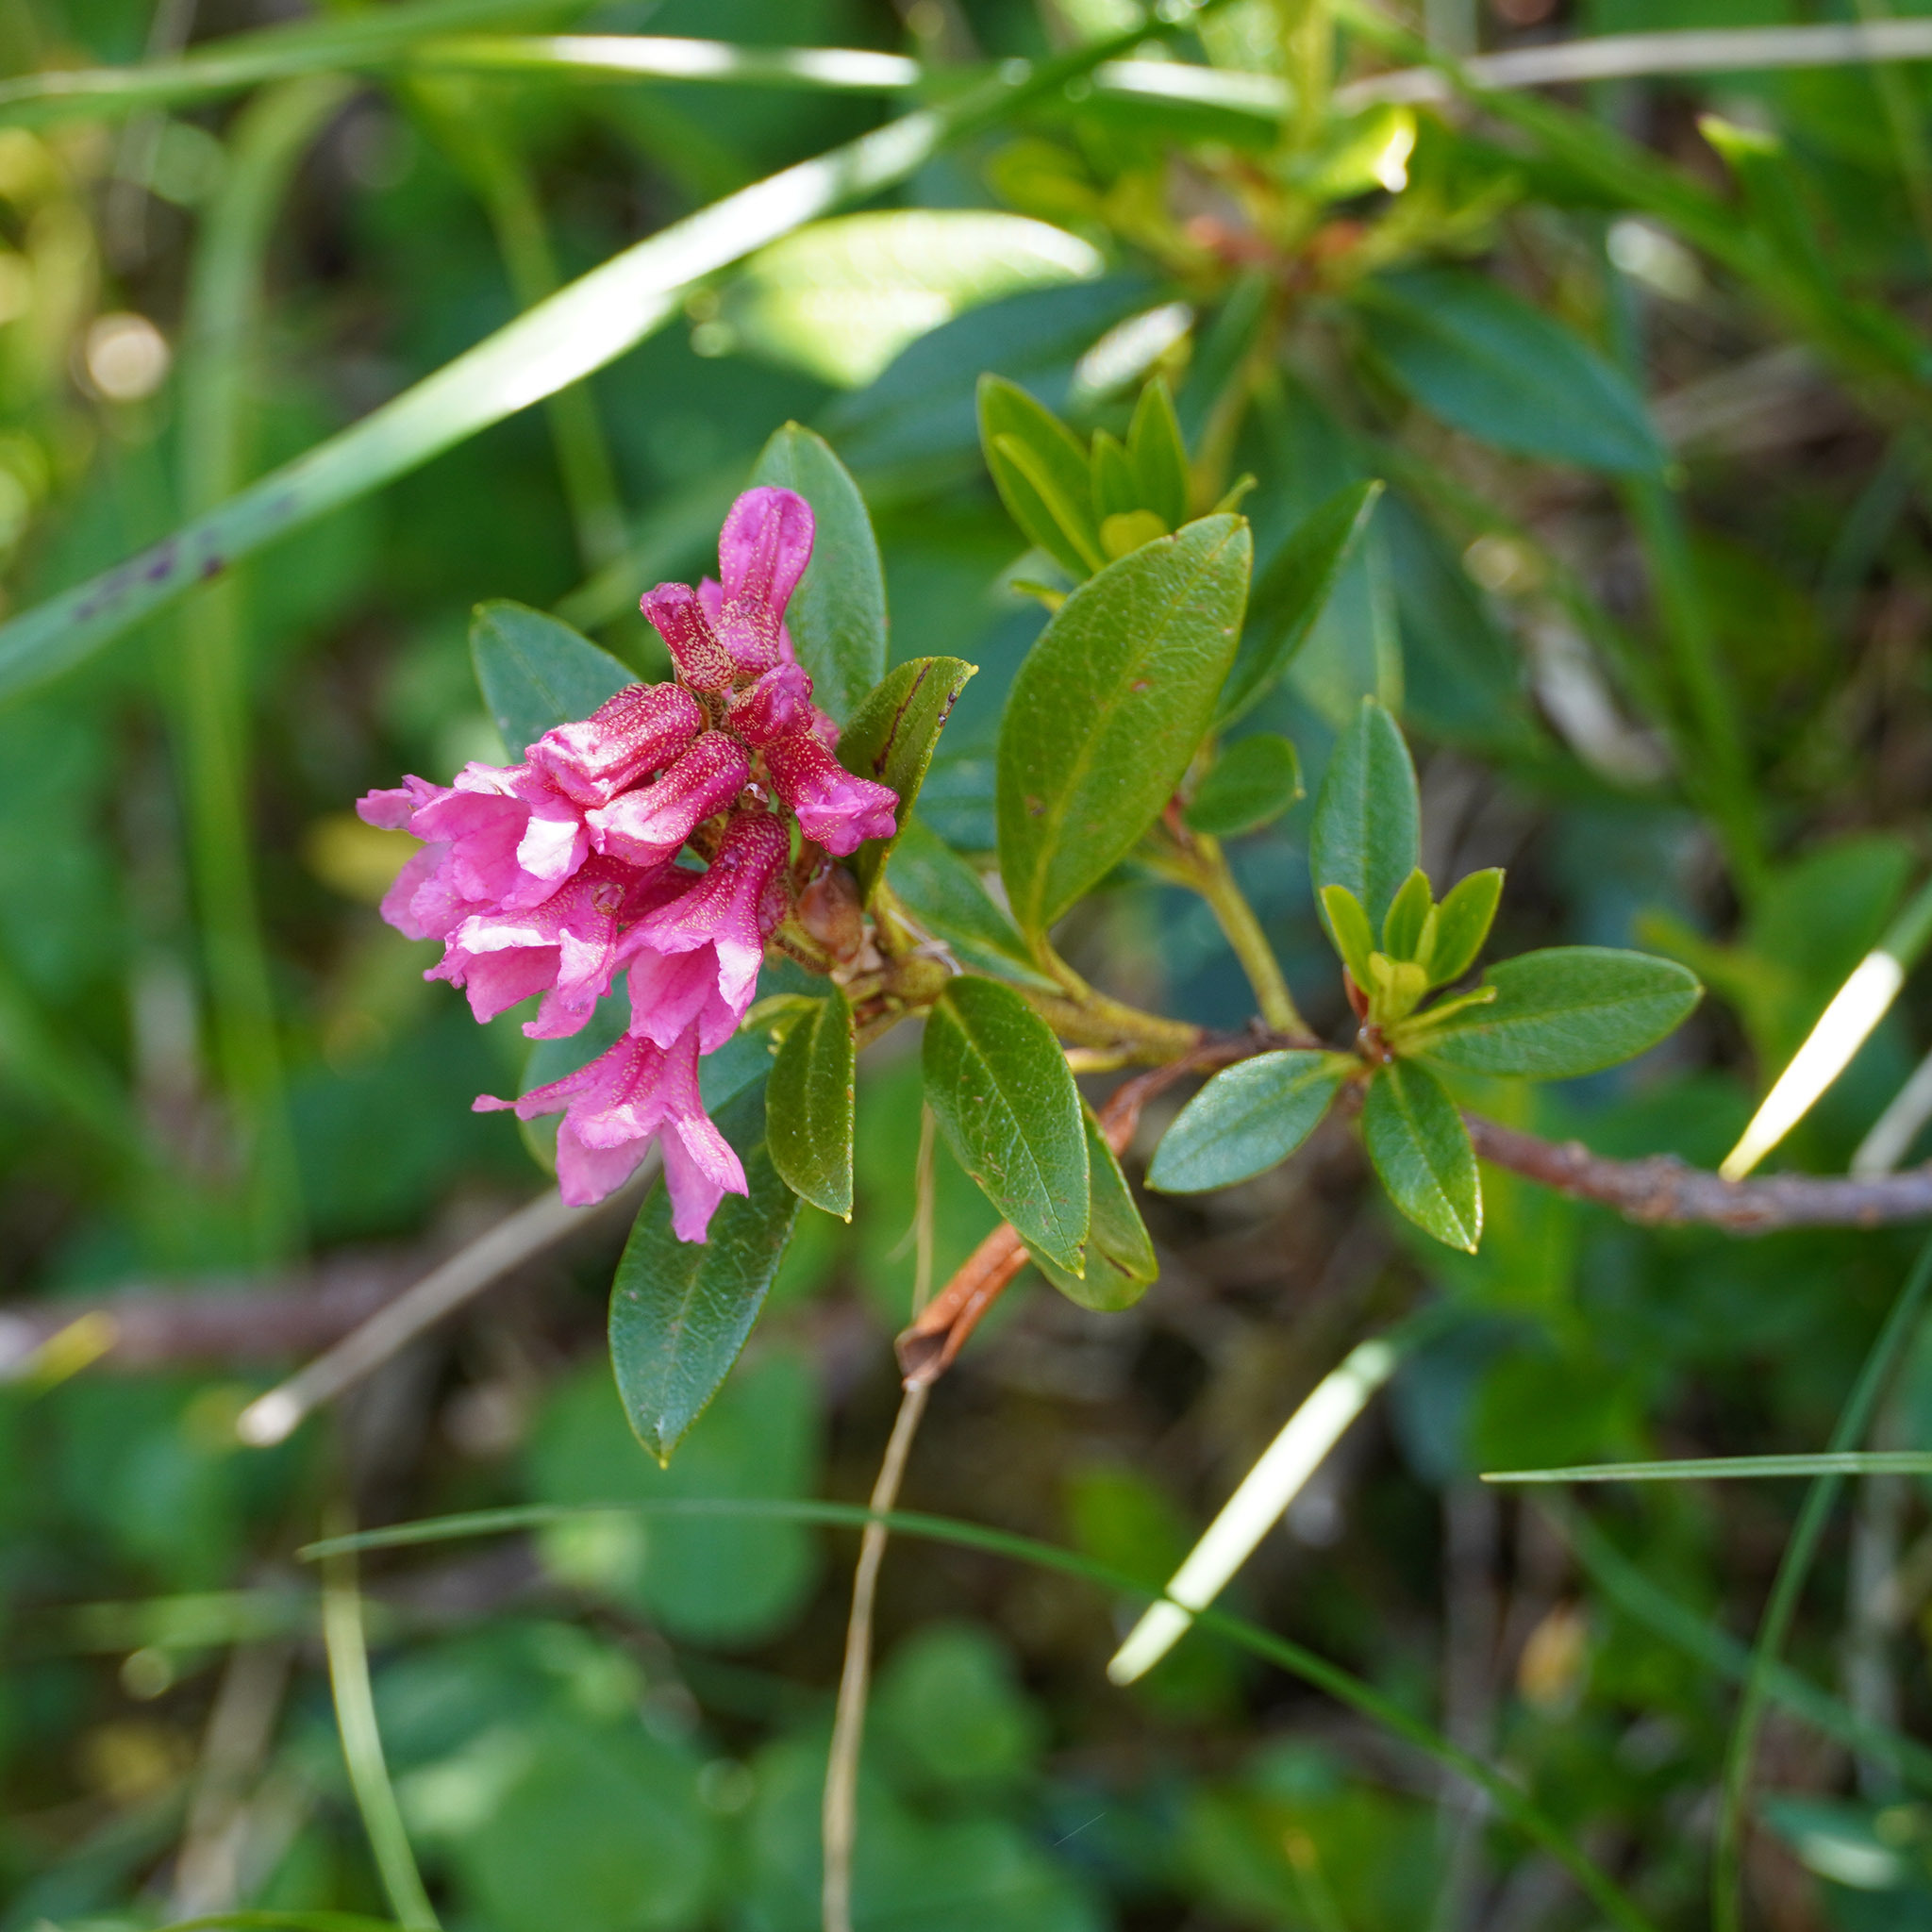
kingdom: Plantae
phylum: Tracheophyta
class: Magnoliopsida
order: Ericales
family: Ericaceae
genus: Rhododendron
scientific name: Rhododendron ferrugineum
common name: Alpenrose
